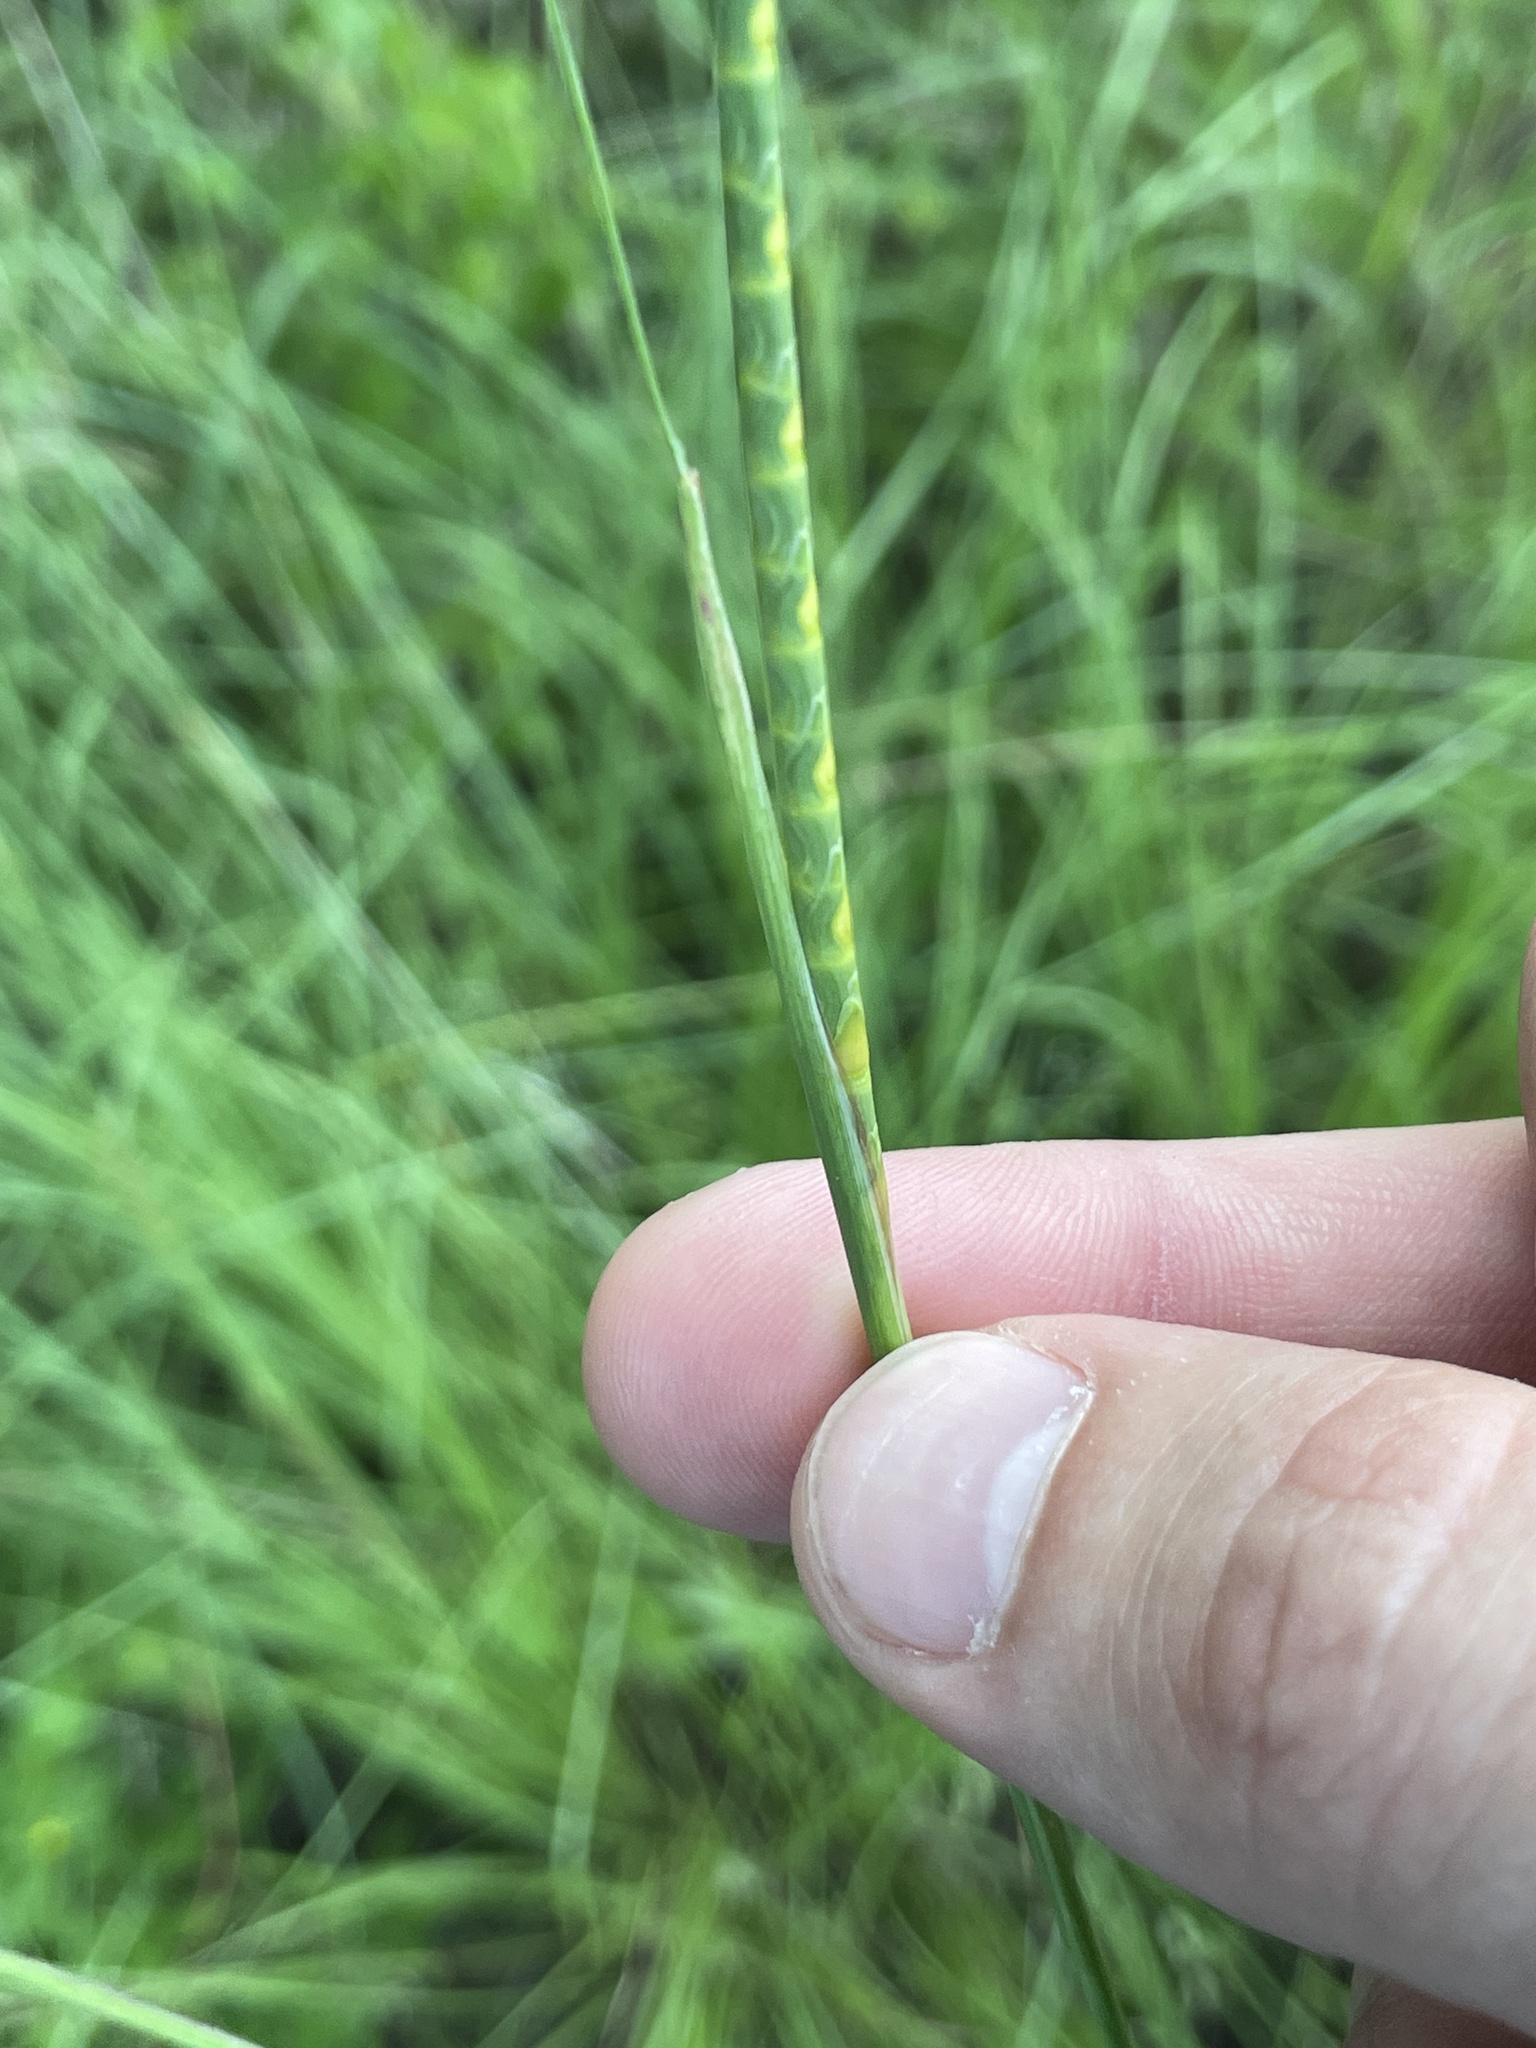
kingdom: Plantae
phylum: Tracheophyta
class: Liliopsida
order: Poales
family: Poaceae
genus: Rottboellia
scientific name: Rottboellia campestris
